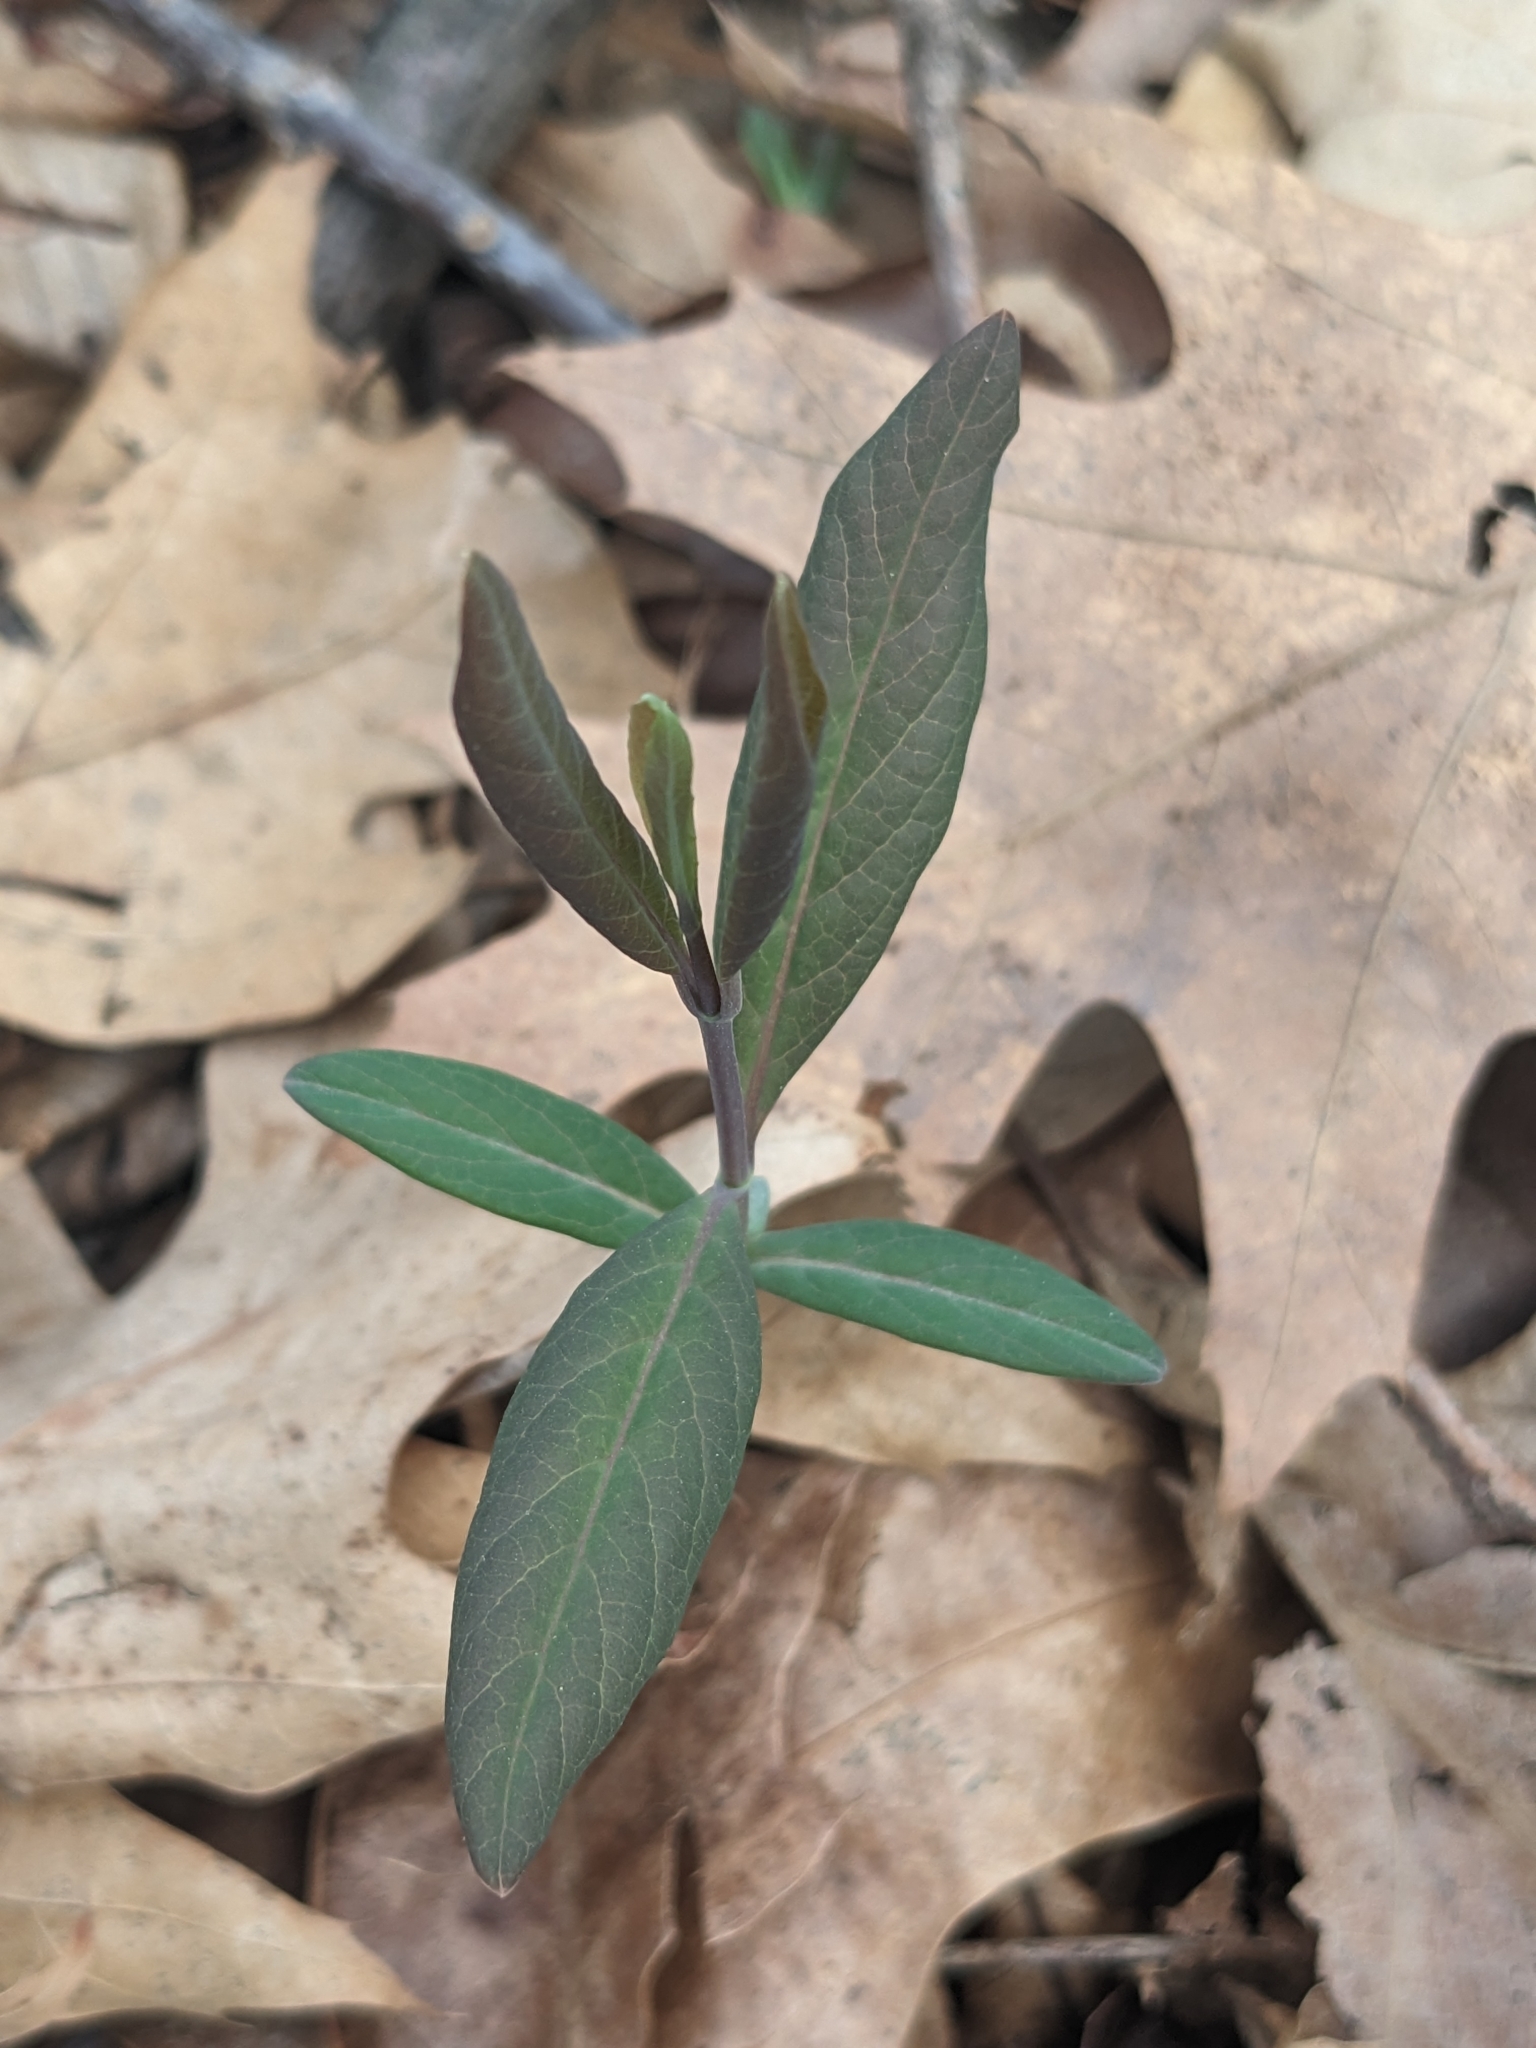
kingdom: Plantae
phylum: Tracheophyta
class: Magnoliopsida
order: Dipsacales
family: Caprifoliaceae
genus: Lonicera
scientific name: Lonicera dioica
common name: Limber honeysuckle
